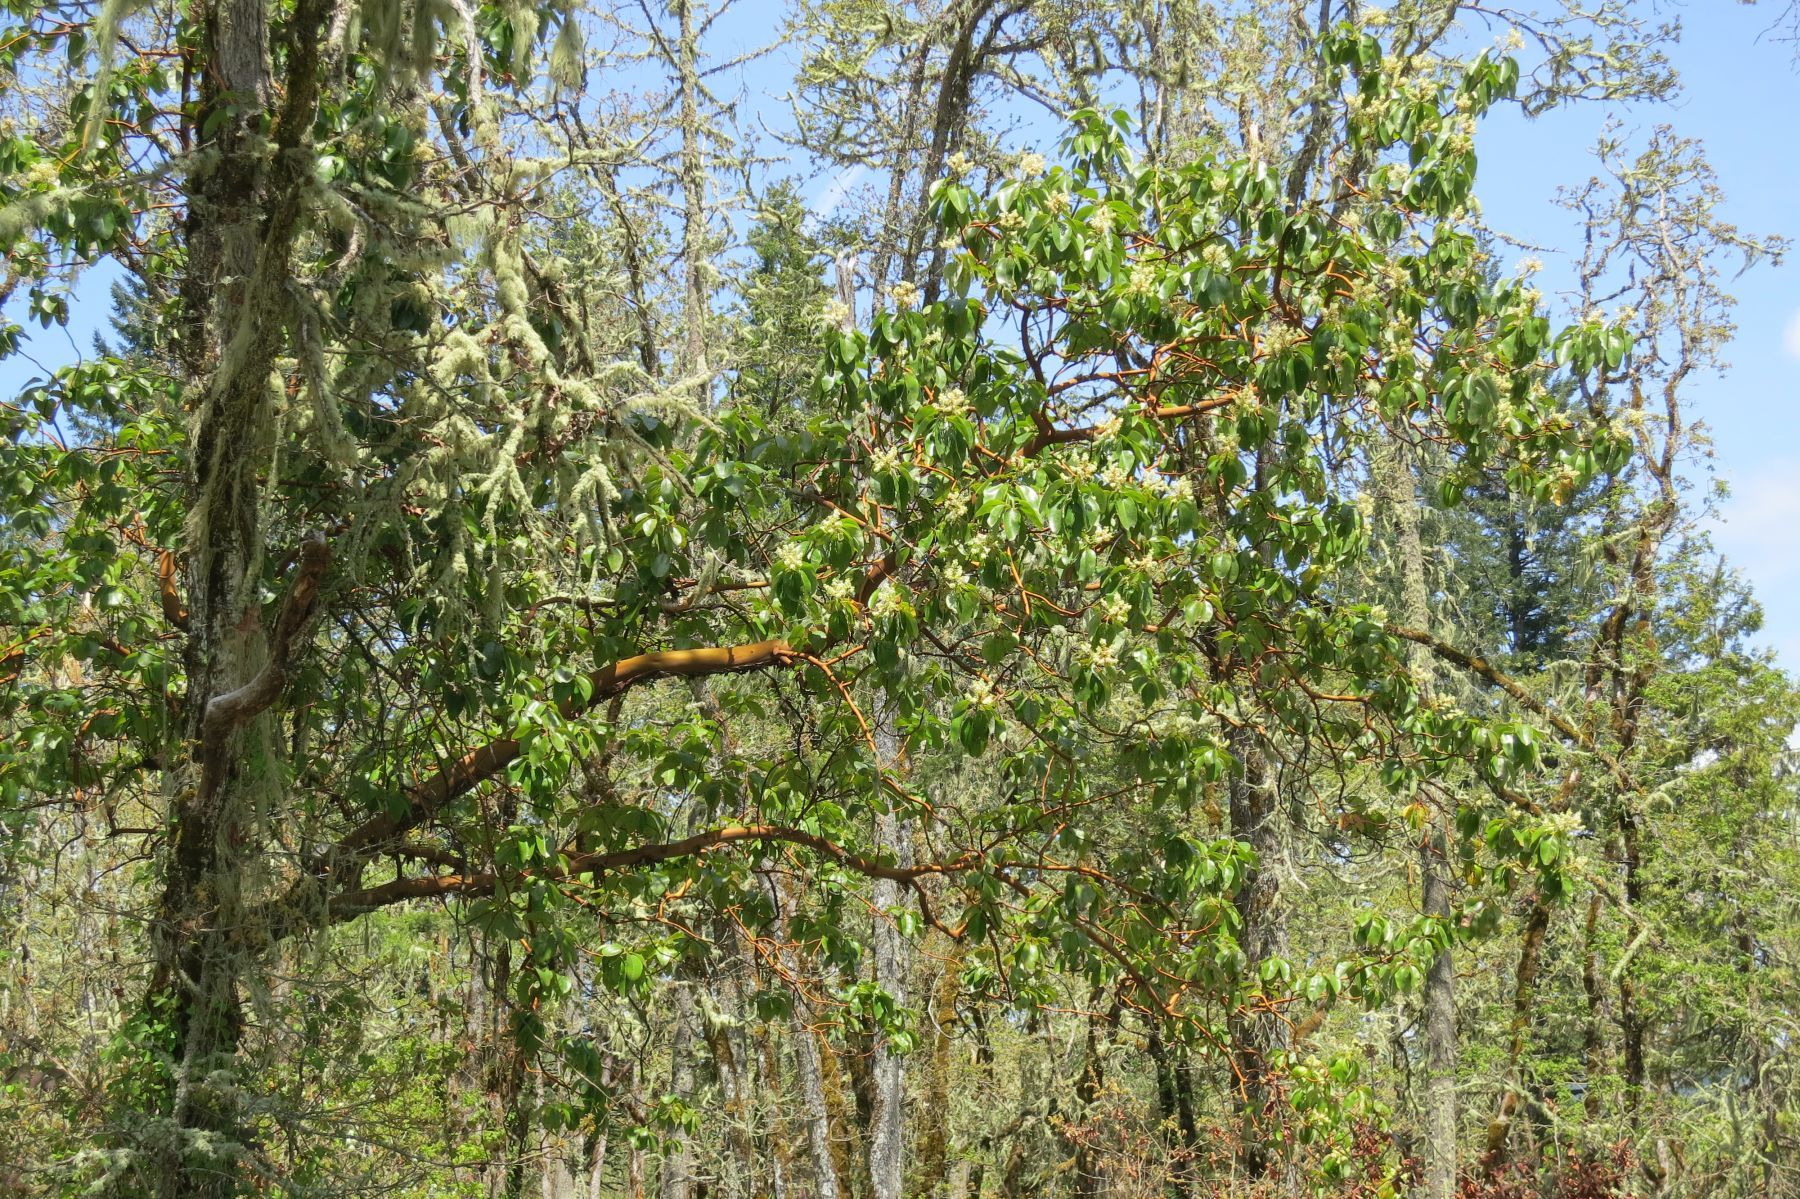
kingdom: Plantae
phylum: Tracheophyta
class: Magnoliopsida
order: Ericales
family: Ericaceae
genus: Arbutus
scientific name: Arbutus menziesii
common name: Pacific madrone
